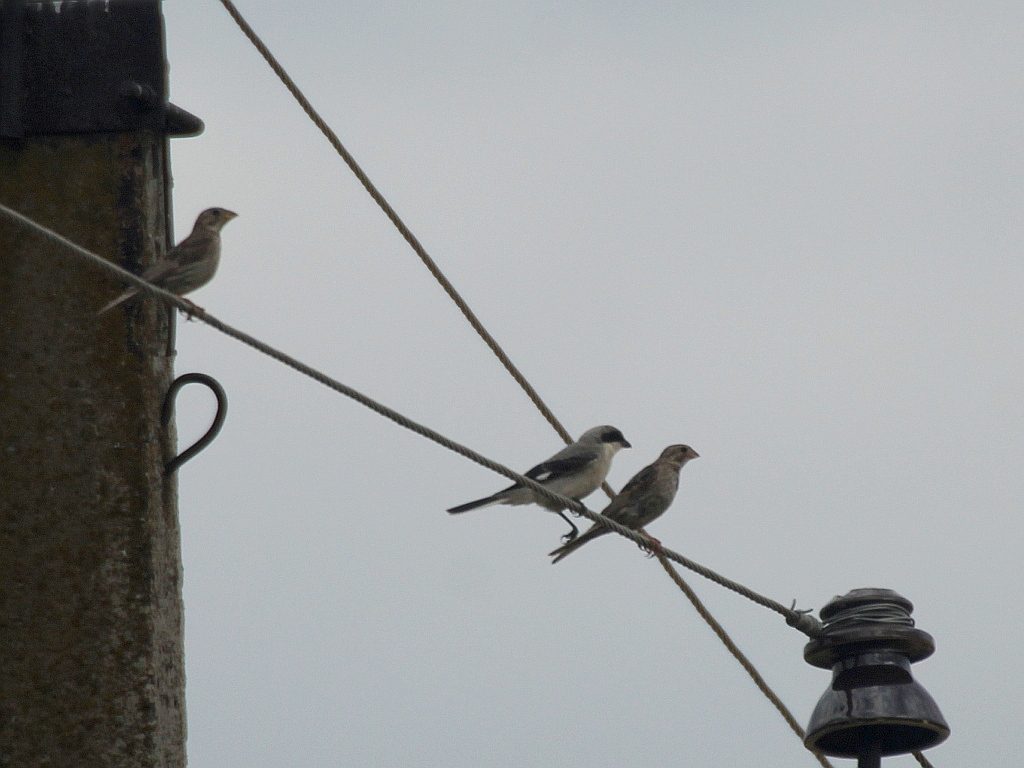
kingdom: Animalia
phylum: Chordata
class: Aves
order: Passeriformes
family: Emberizidae
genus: Emberiza
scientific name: Emberiza calandra
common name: Corn bunting
